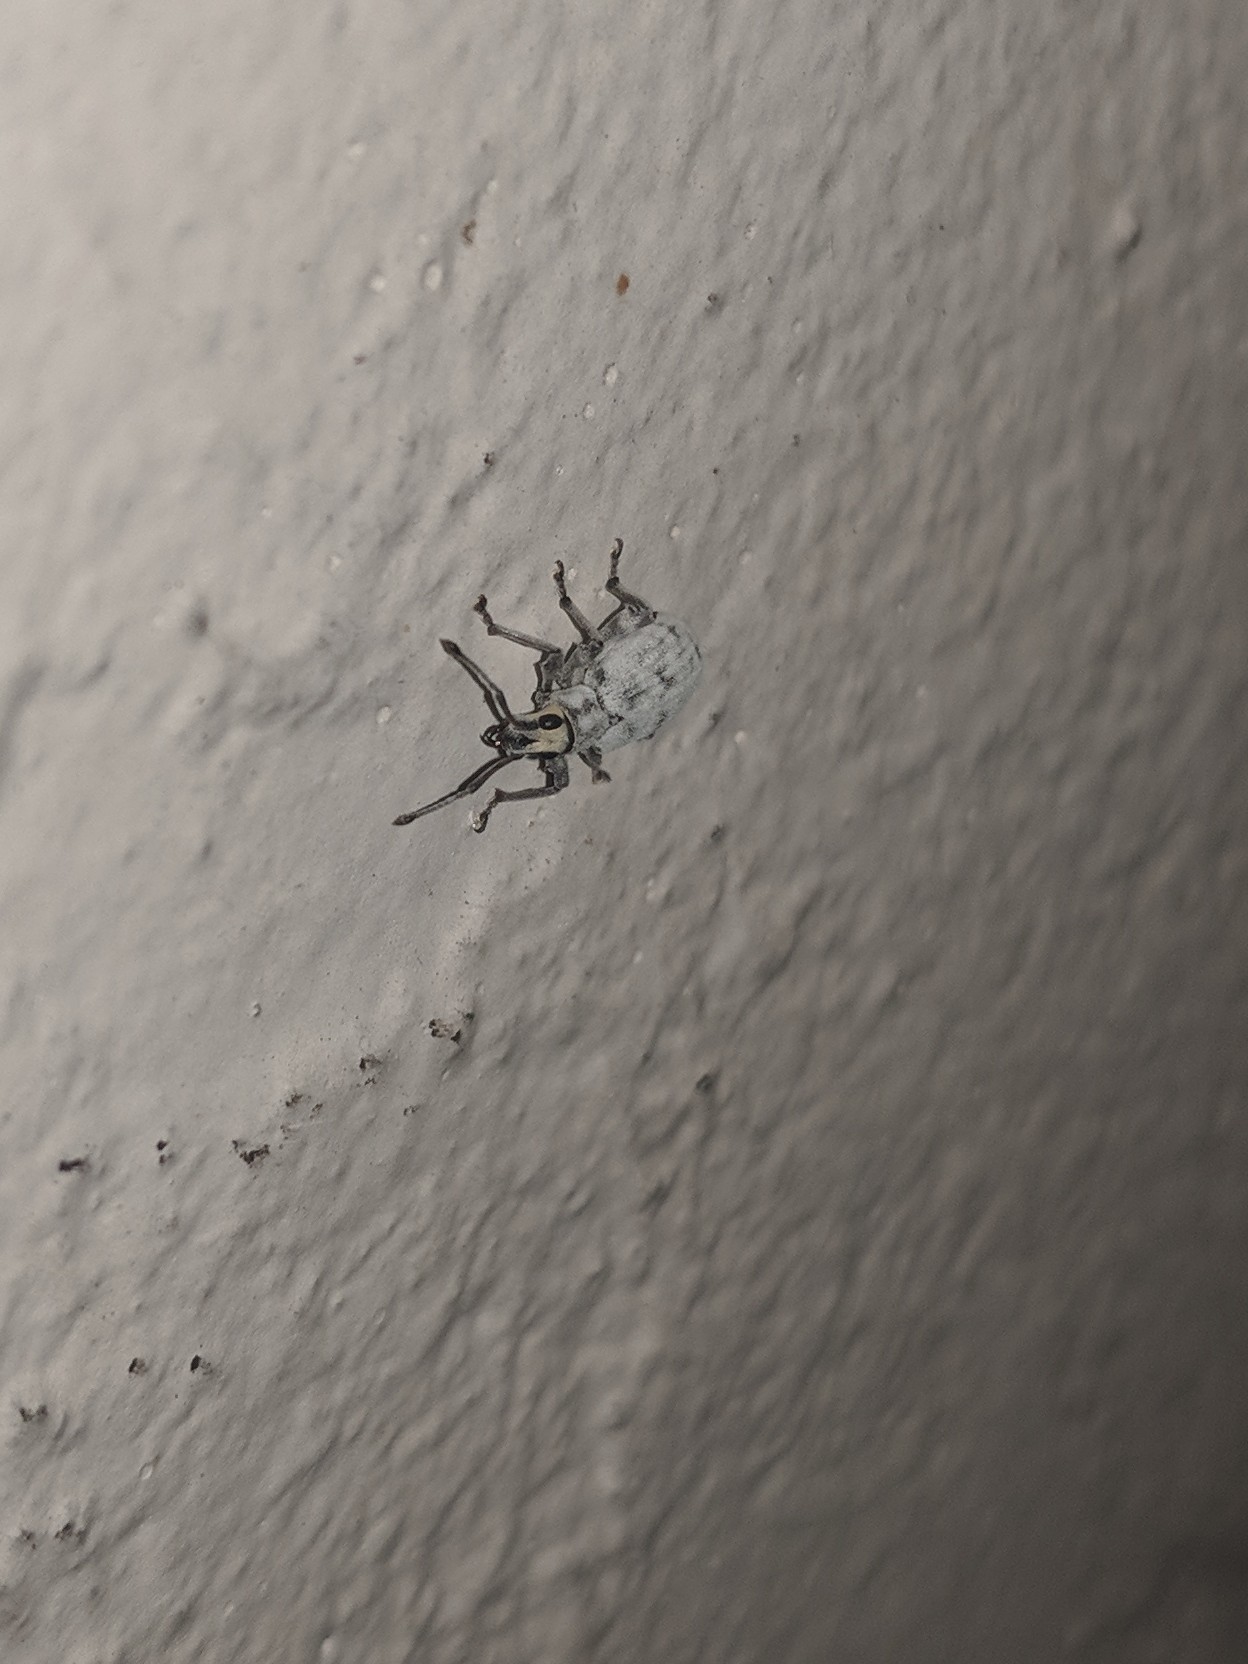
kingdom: Animalia
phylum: Arthropoda
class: Insecta
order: Coleoptera
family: Curculionidae
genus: Myllocerus
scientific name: Myllocerus undecimpustulatus
